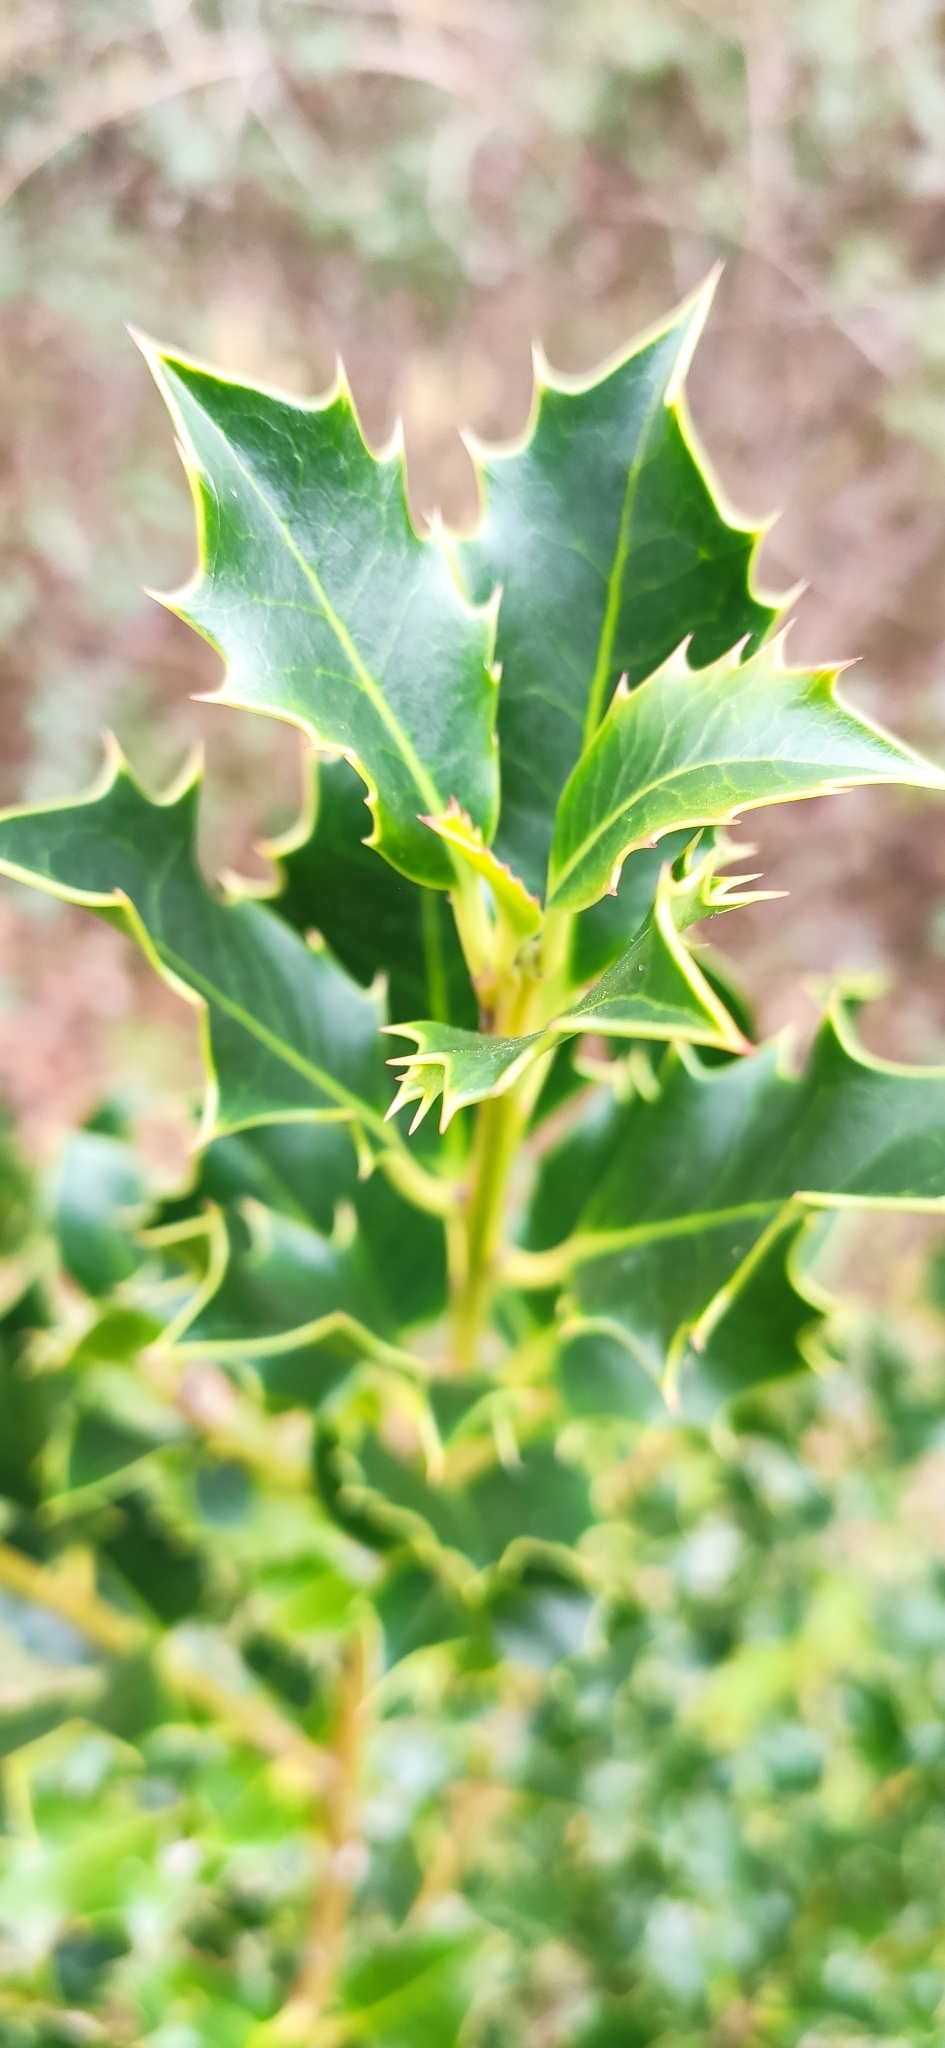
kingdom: Plantae
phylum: Tracheophyta
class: Magnoliopsida
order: Aquifoliales
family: Aquifoliaceae
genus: Ilex
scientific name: Ilex aquifolium
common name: English holly
